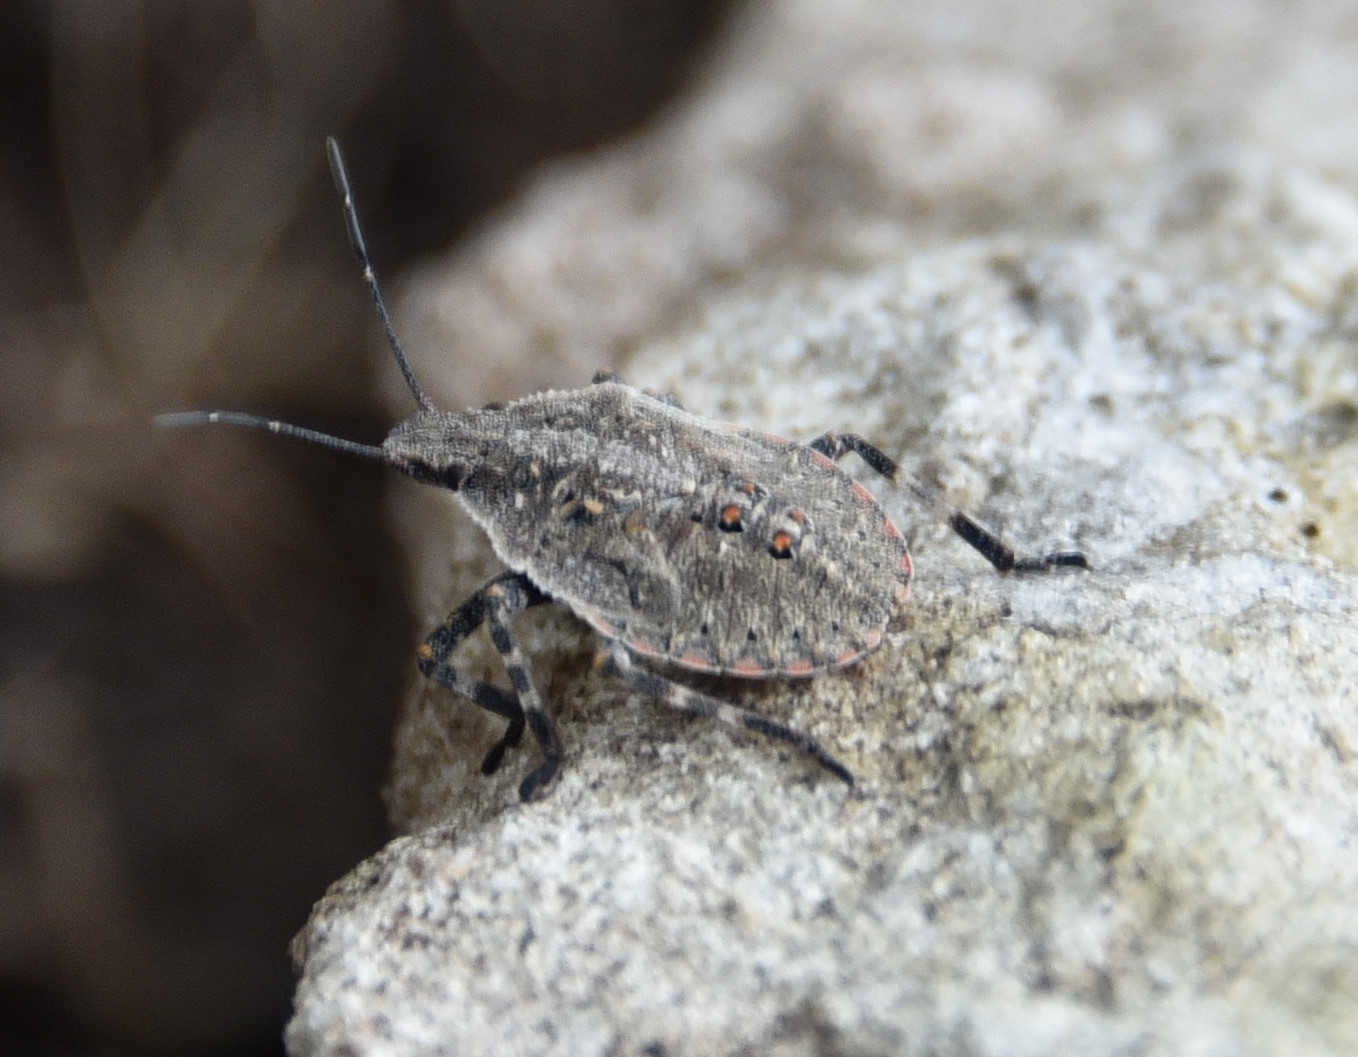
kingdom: Animalia
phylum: Arthropoda
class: Insecta
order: Hemiptera
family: Pentatomidae
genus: Brochymena
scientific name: Brochymena quadripustulata
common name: Four-humped stink bug
